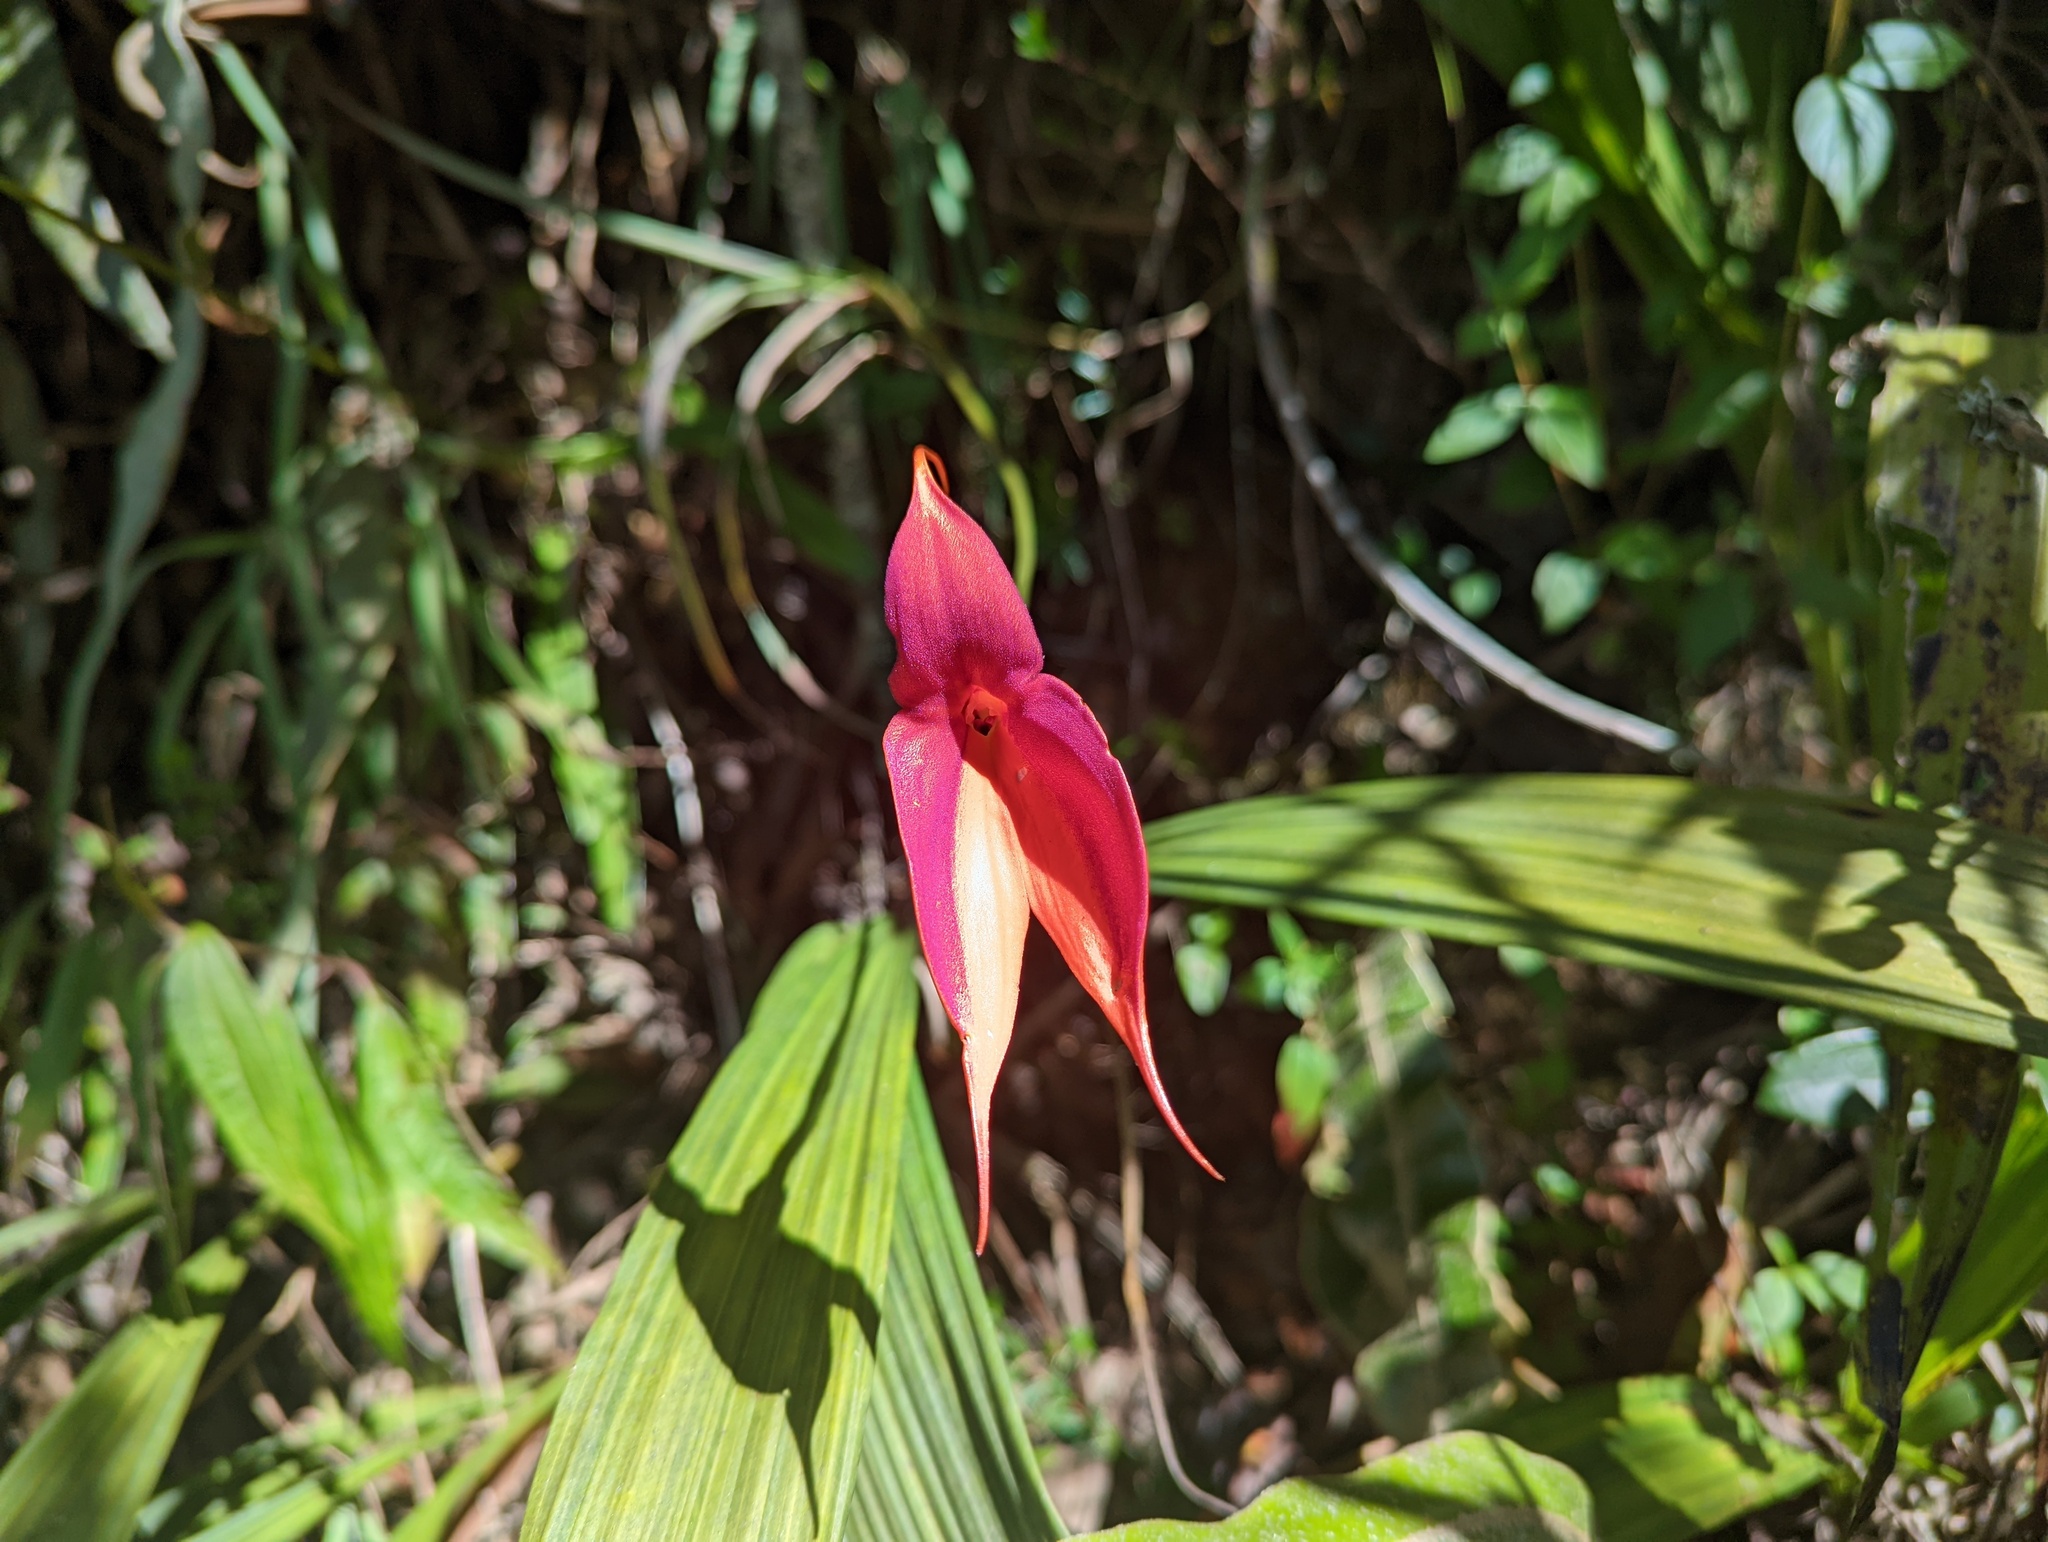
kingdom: Plantae
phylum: Tracheophyta
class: Liliopsida
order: Asparagales
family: Orchidaceae
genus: Masdevallia
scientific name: Masdevallia veitchiana
